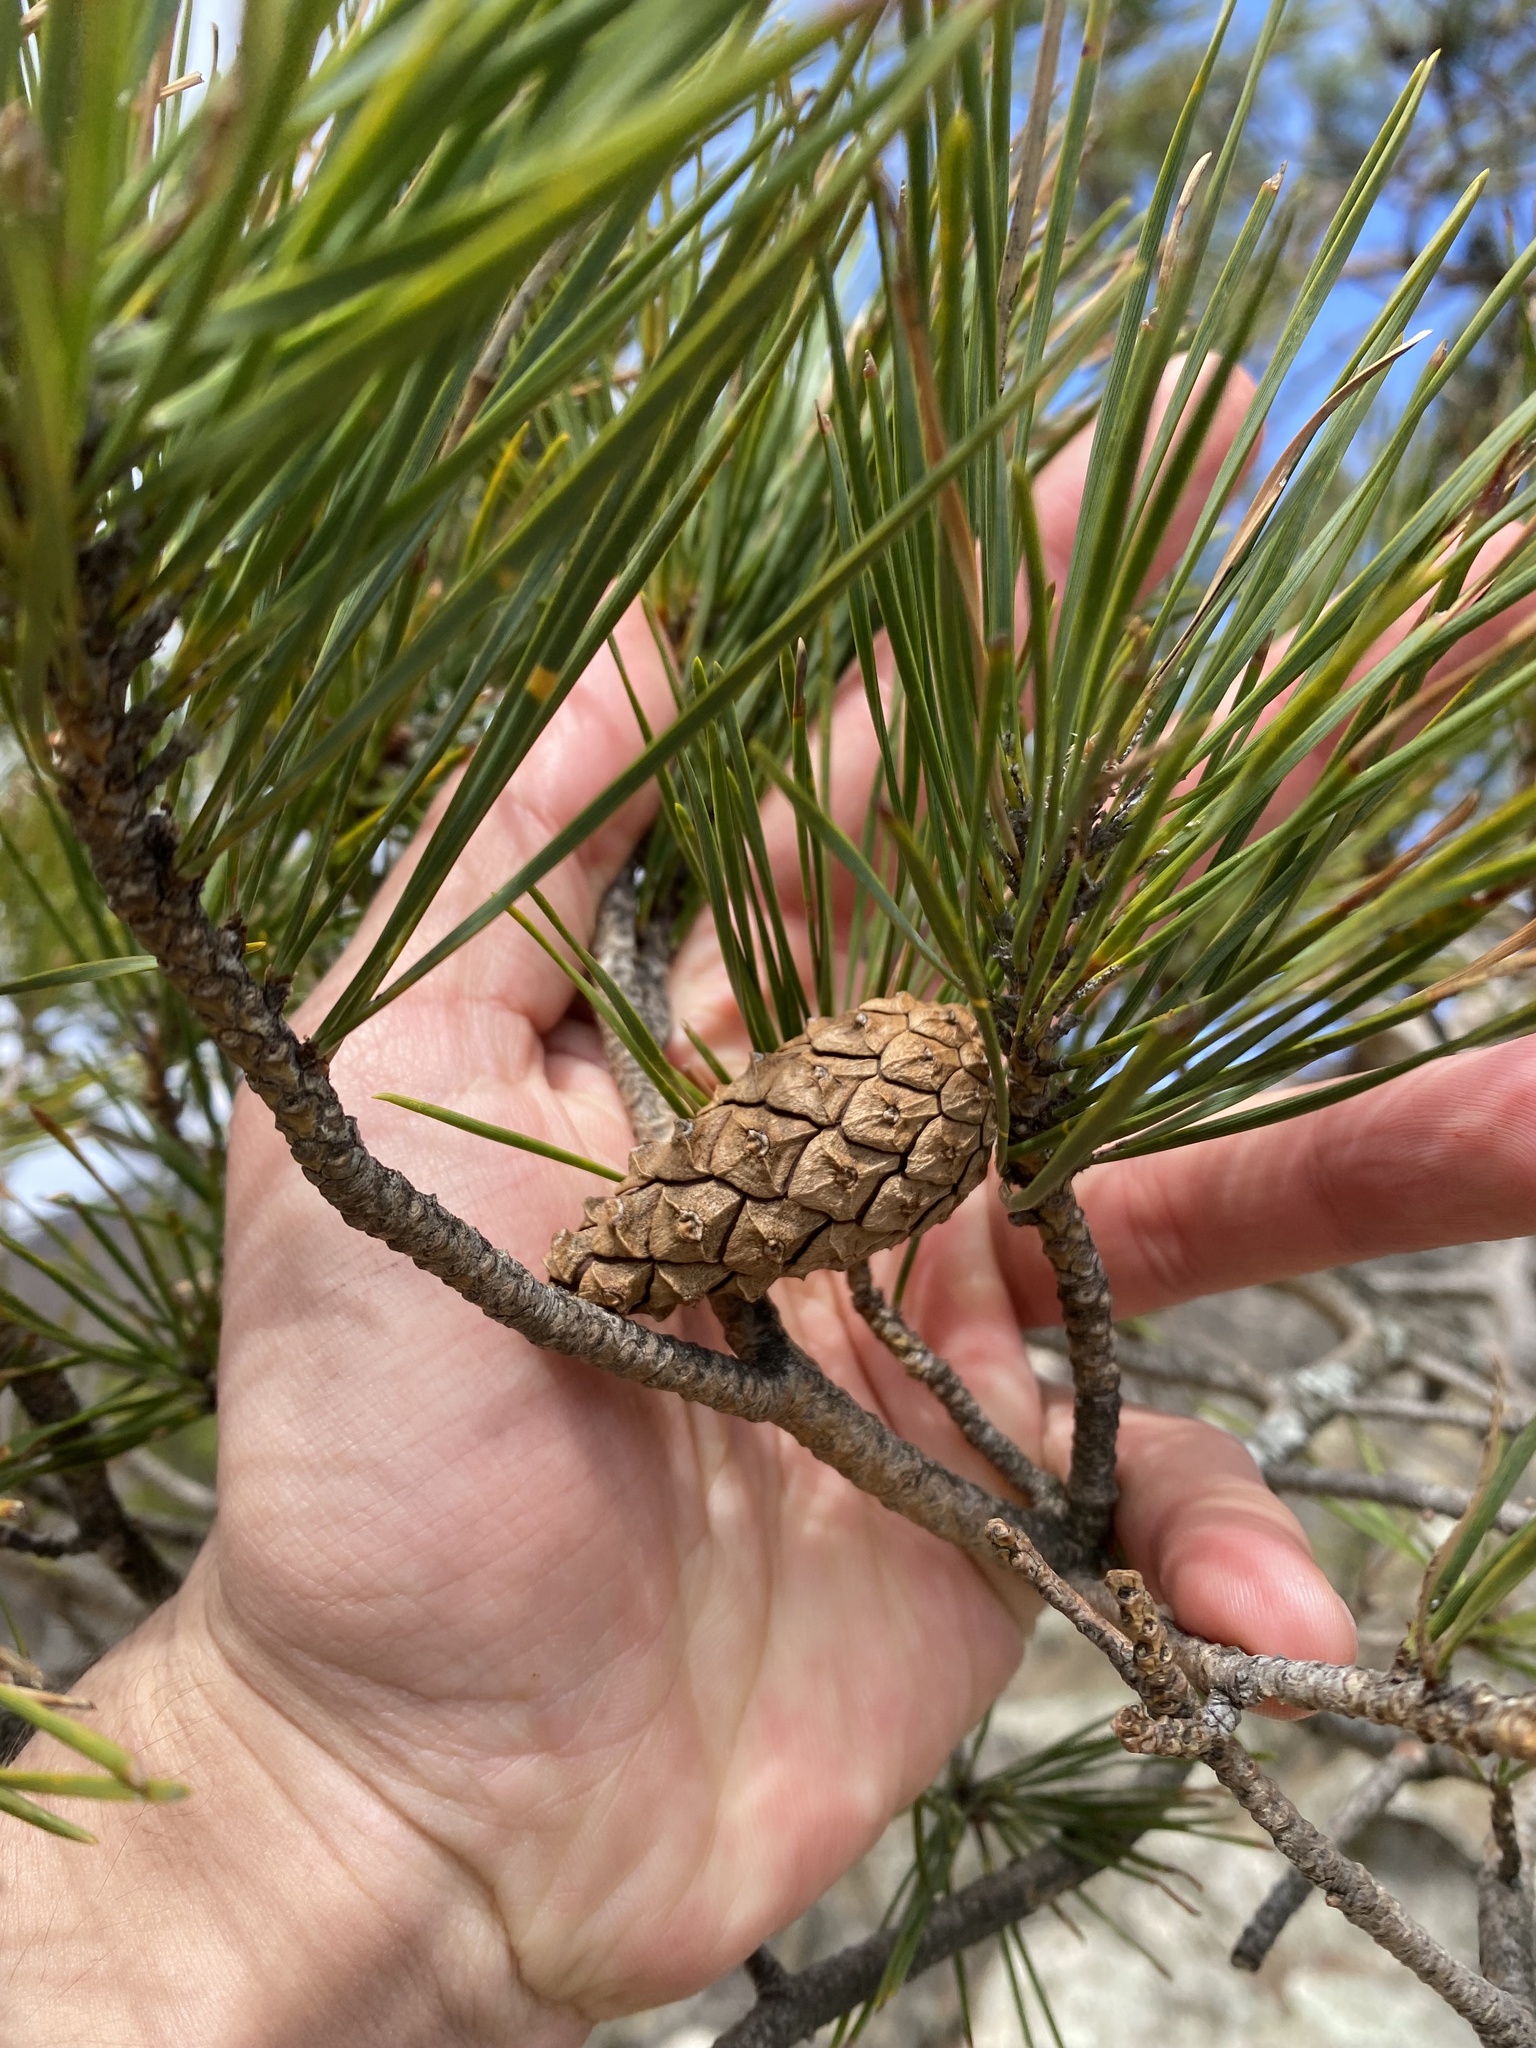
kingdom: Plantae
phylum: Tracheophyta
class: Pinopsida
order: Pinales
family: Pinaceae
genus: Pinus
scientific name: Pinus sylvestris
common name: Scots pine
